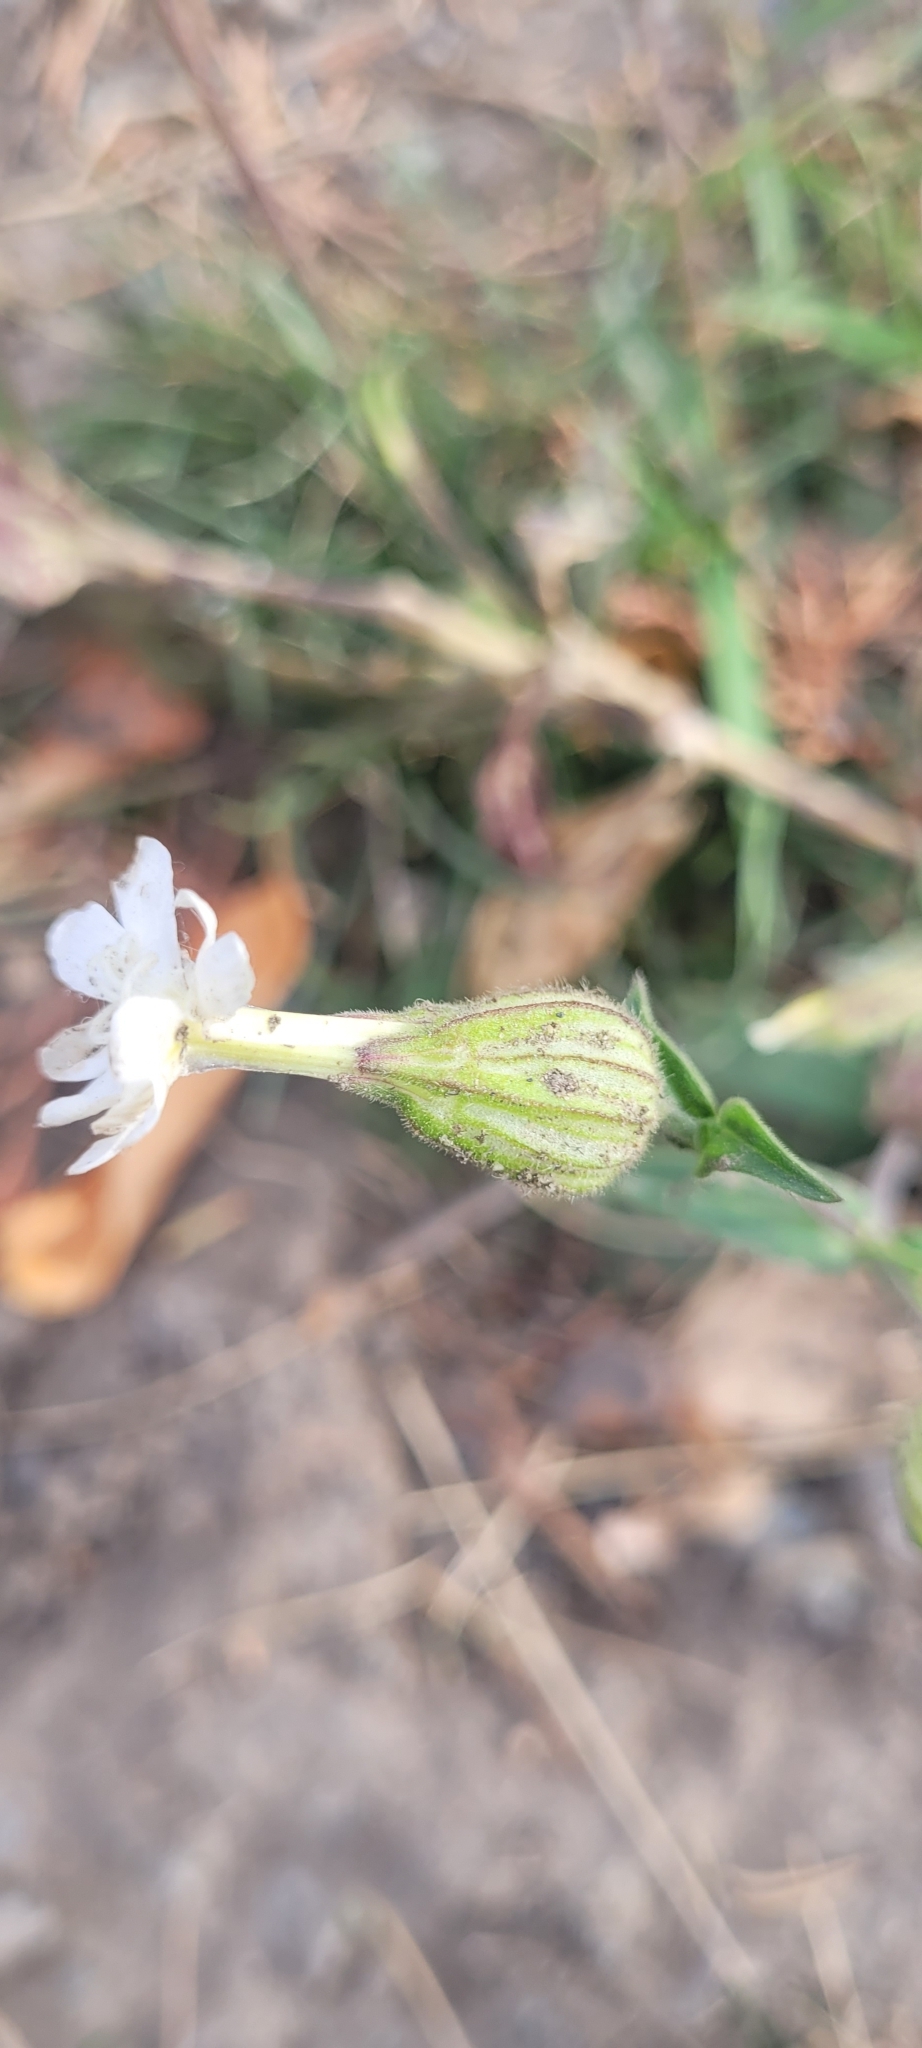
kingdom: Plantae
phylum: Tracheophyta
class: Magnoliopsida
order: Caryophyllales
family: Caryophyllaceae
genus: Silene
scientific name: Silene latifolia
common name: White campion
